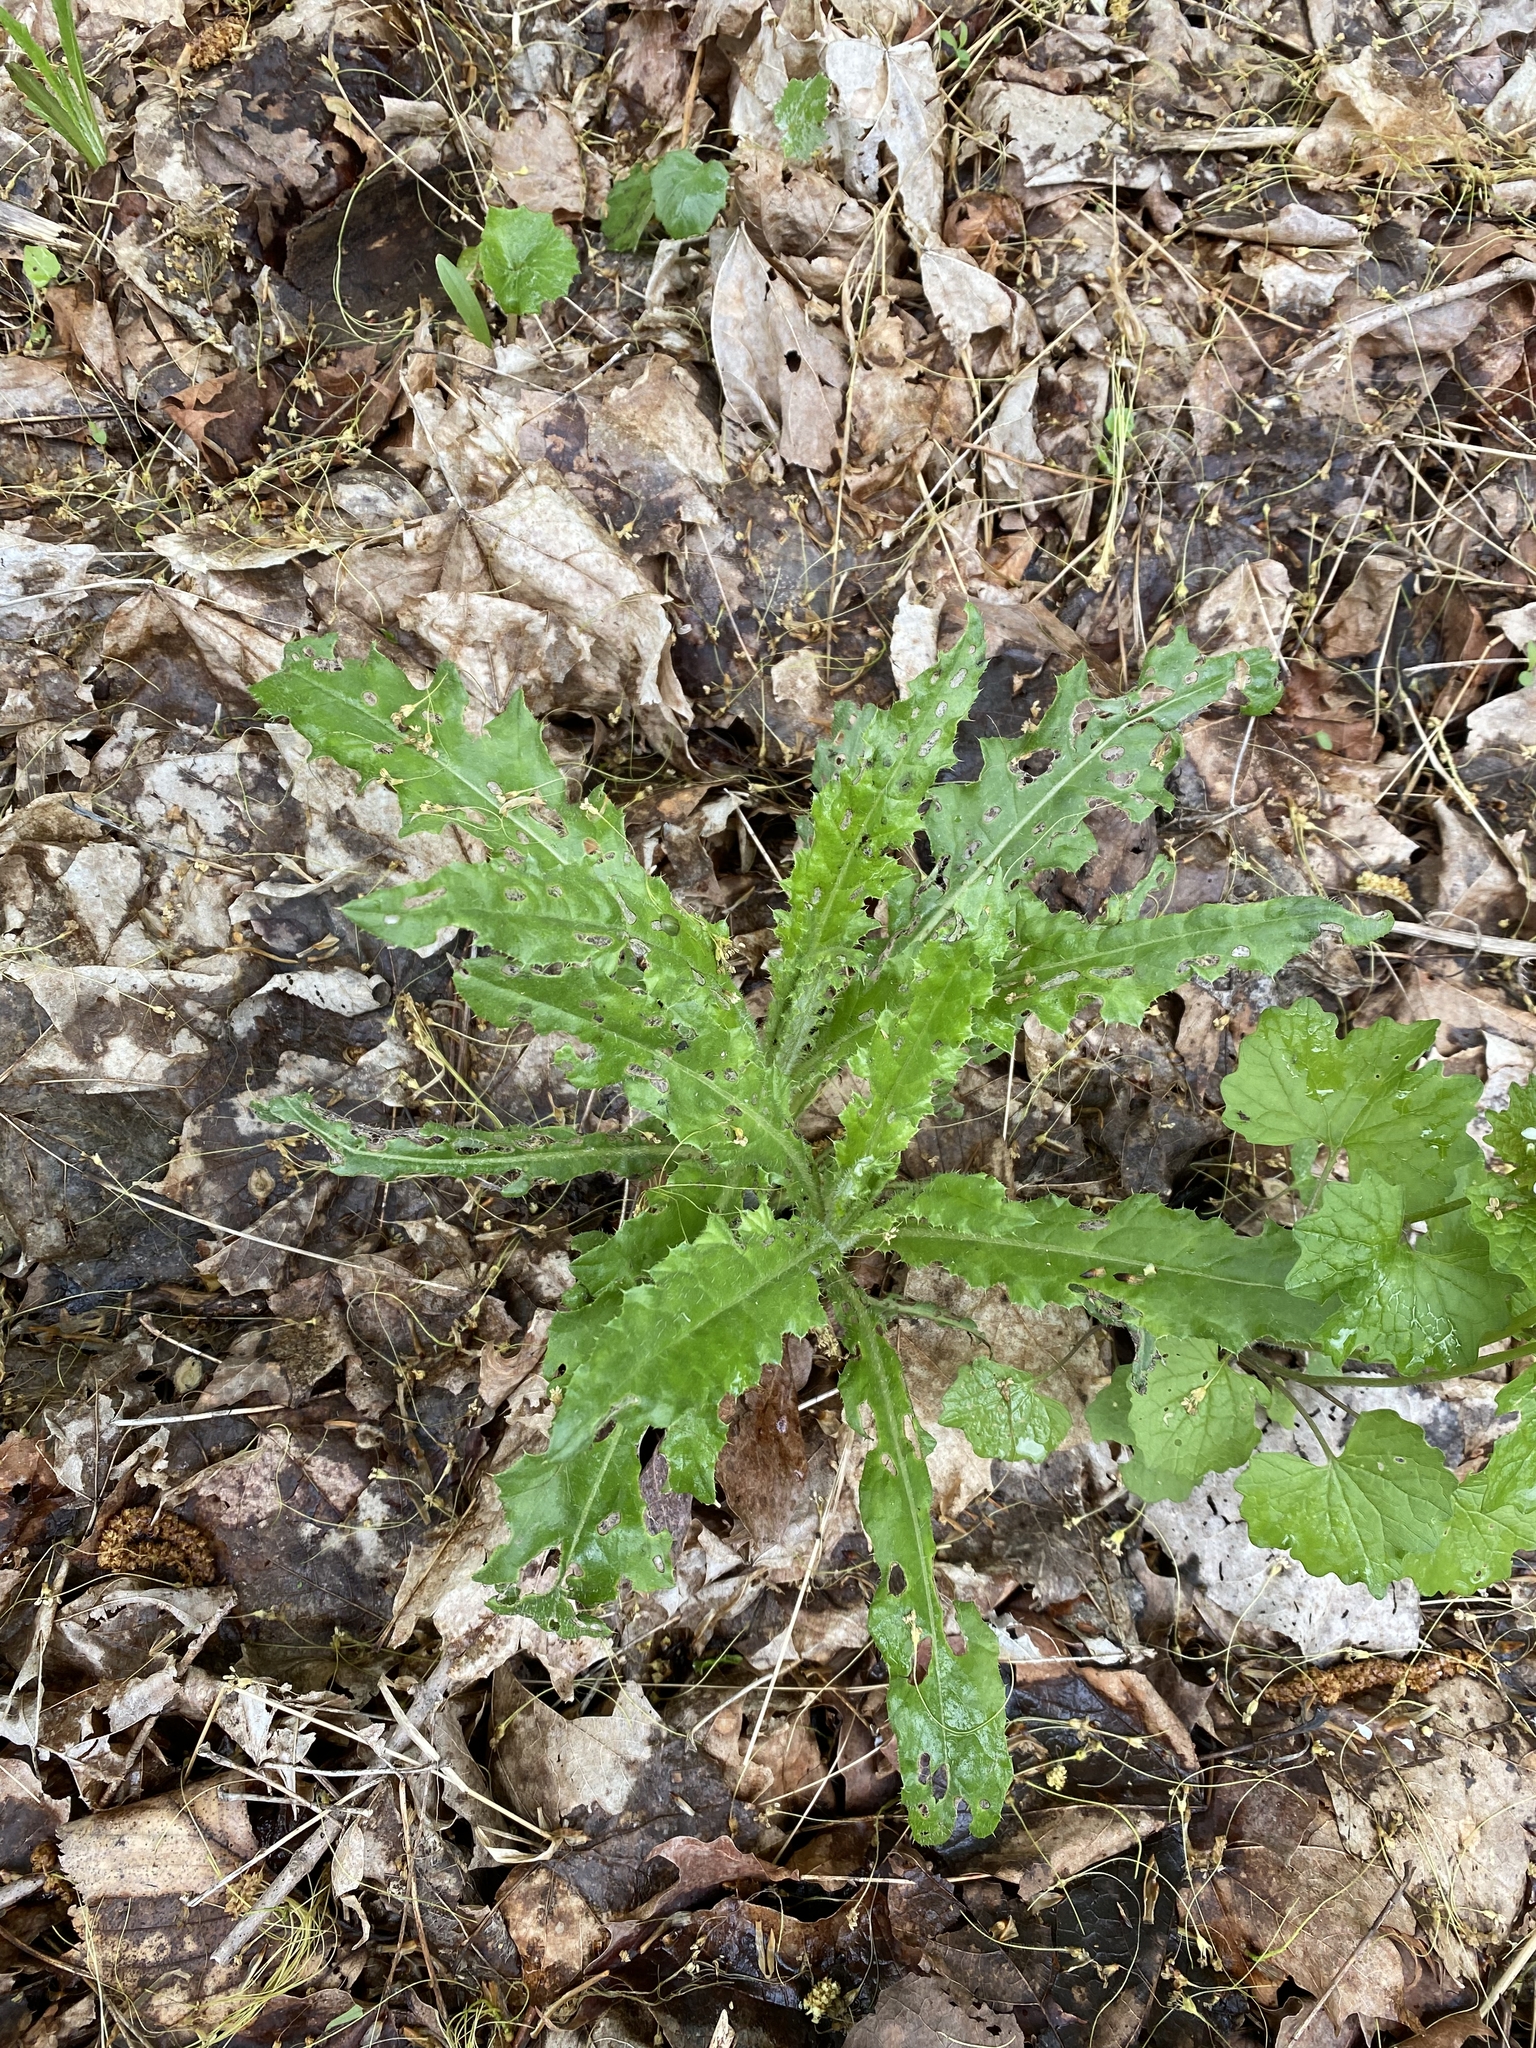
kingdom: Plantae
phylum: Tracheophyta
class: Magnoliopsida
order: Asterales
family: Asteraceae
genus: Cirsium
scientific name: Cirsium arvense
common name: Creeping thistle
